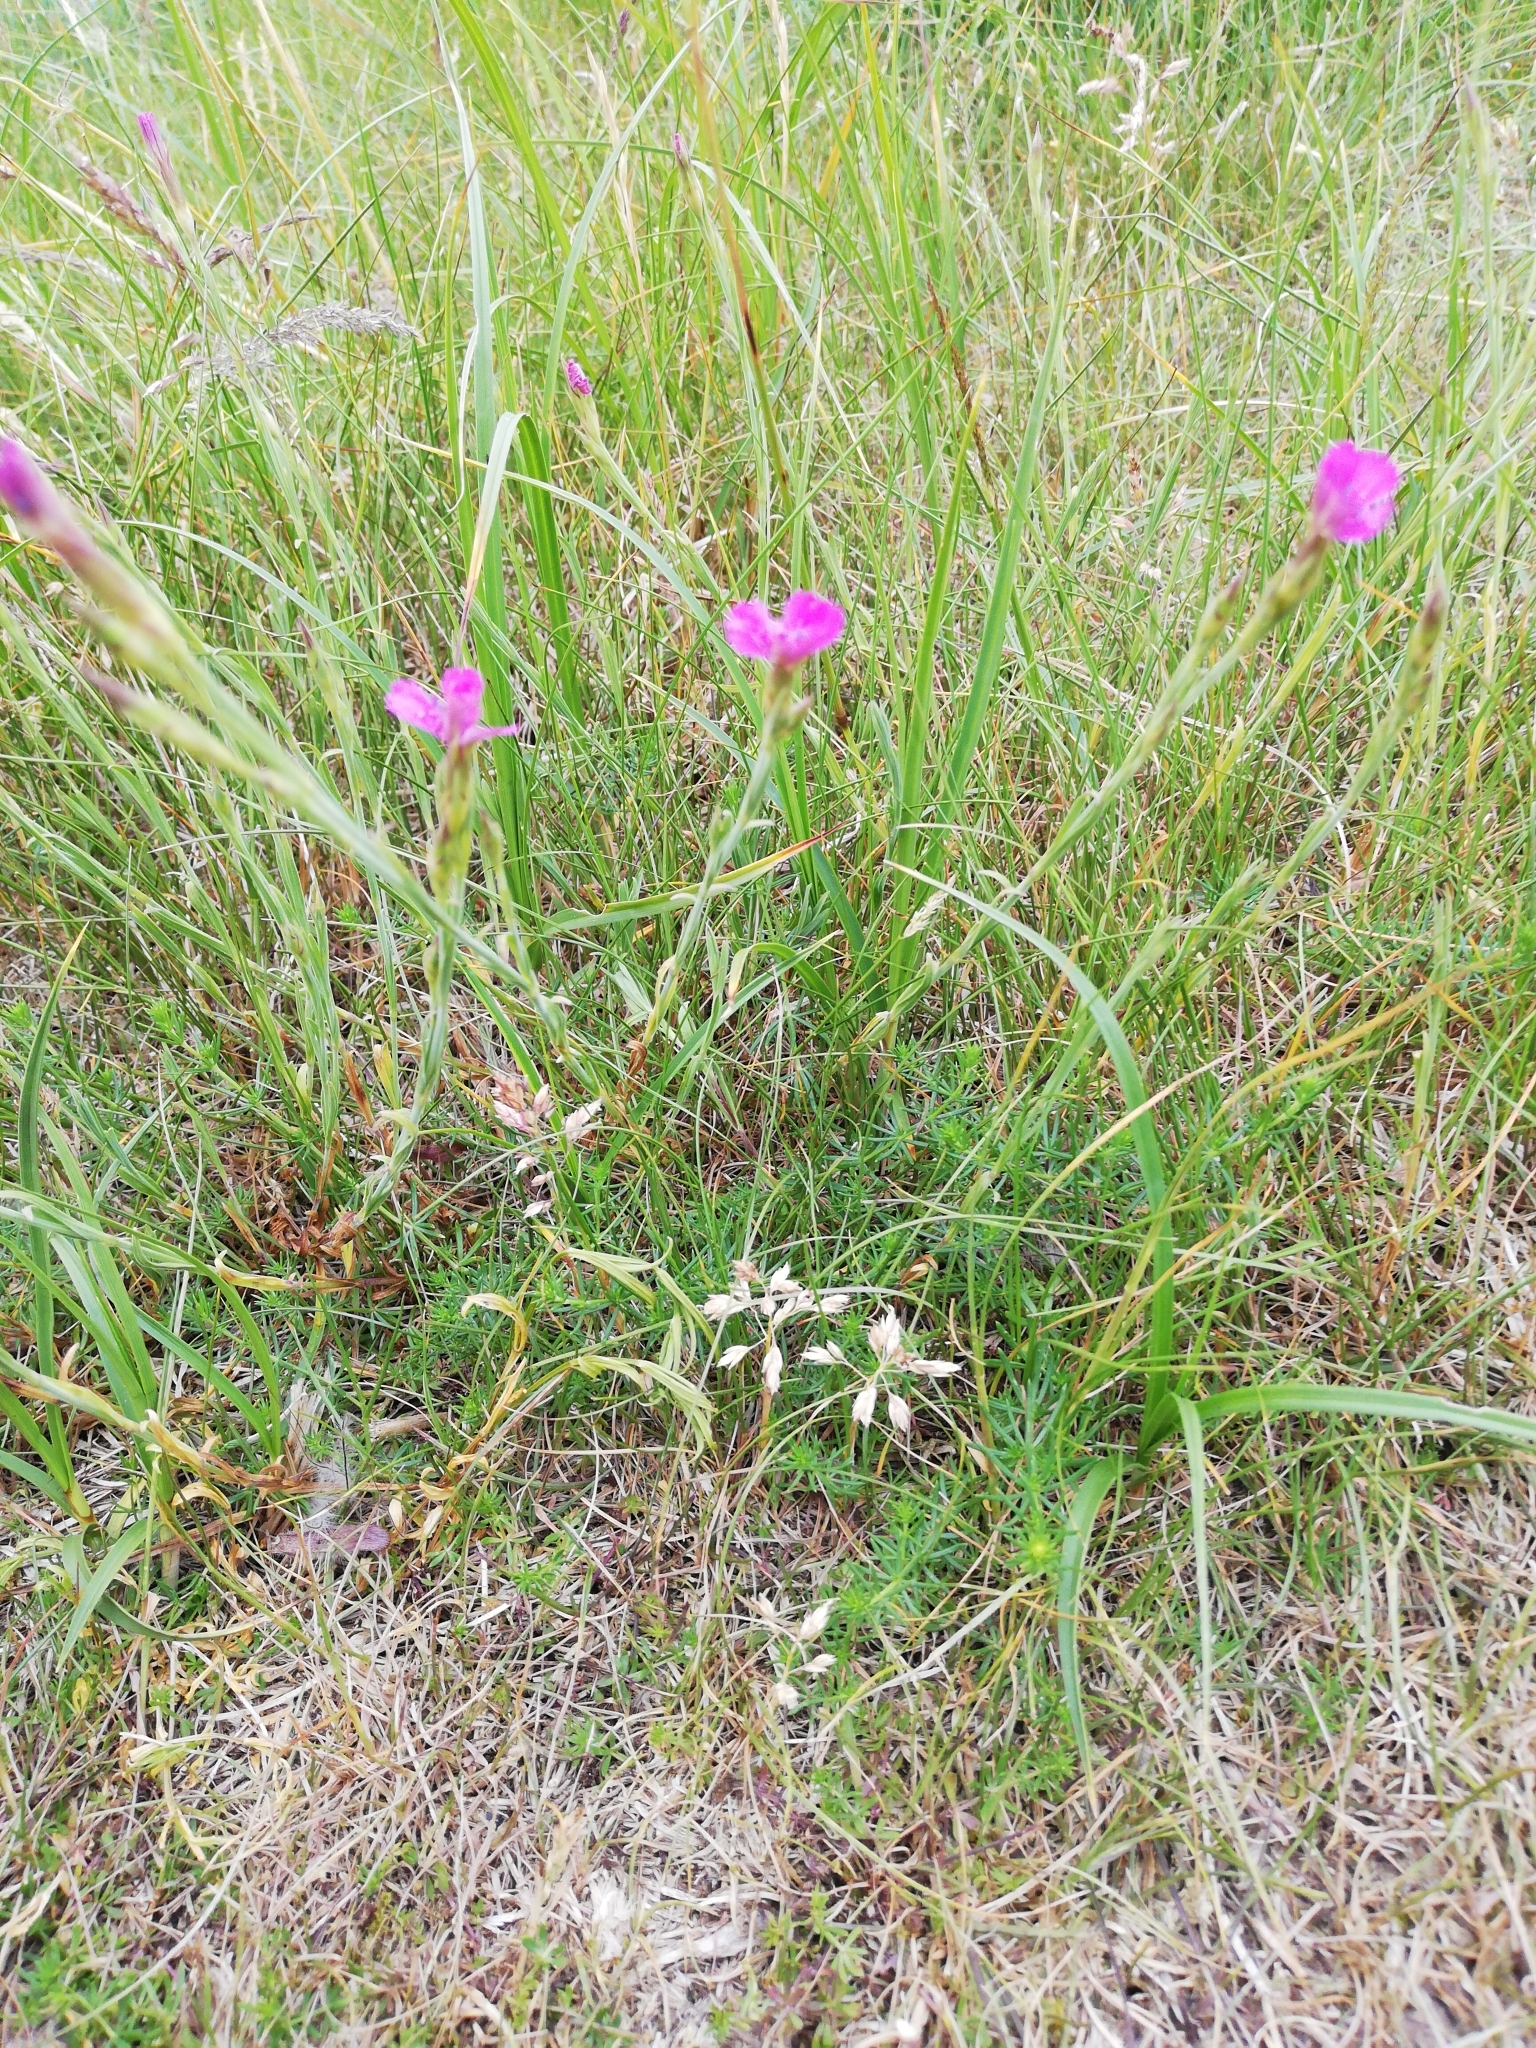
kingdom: Plantae
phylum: Tracheophyta
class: Magnoliopsida
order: Caryophyllales
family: Caryophyllaceae
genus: Dianthus
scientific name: Dianthus deltoides
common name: Maiden pink
